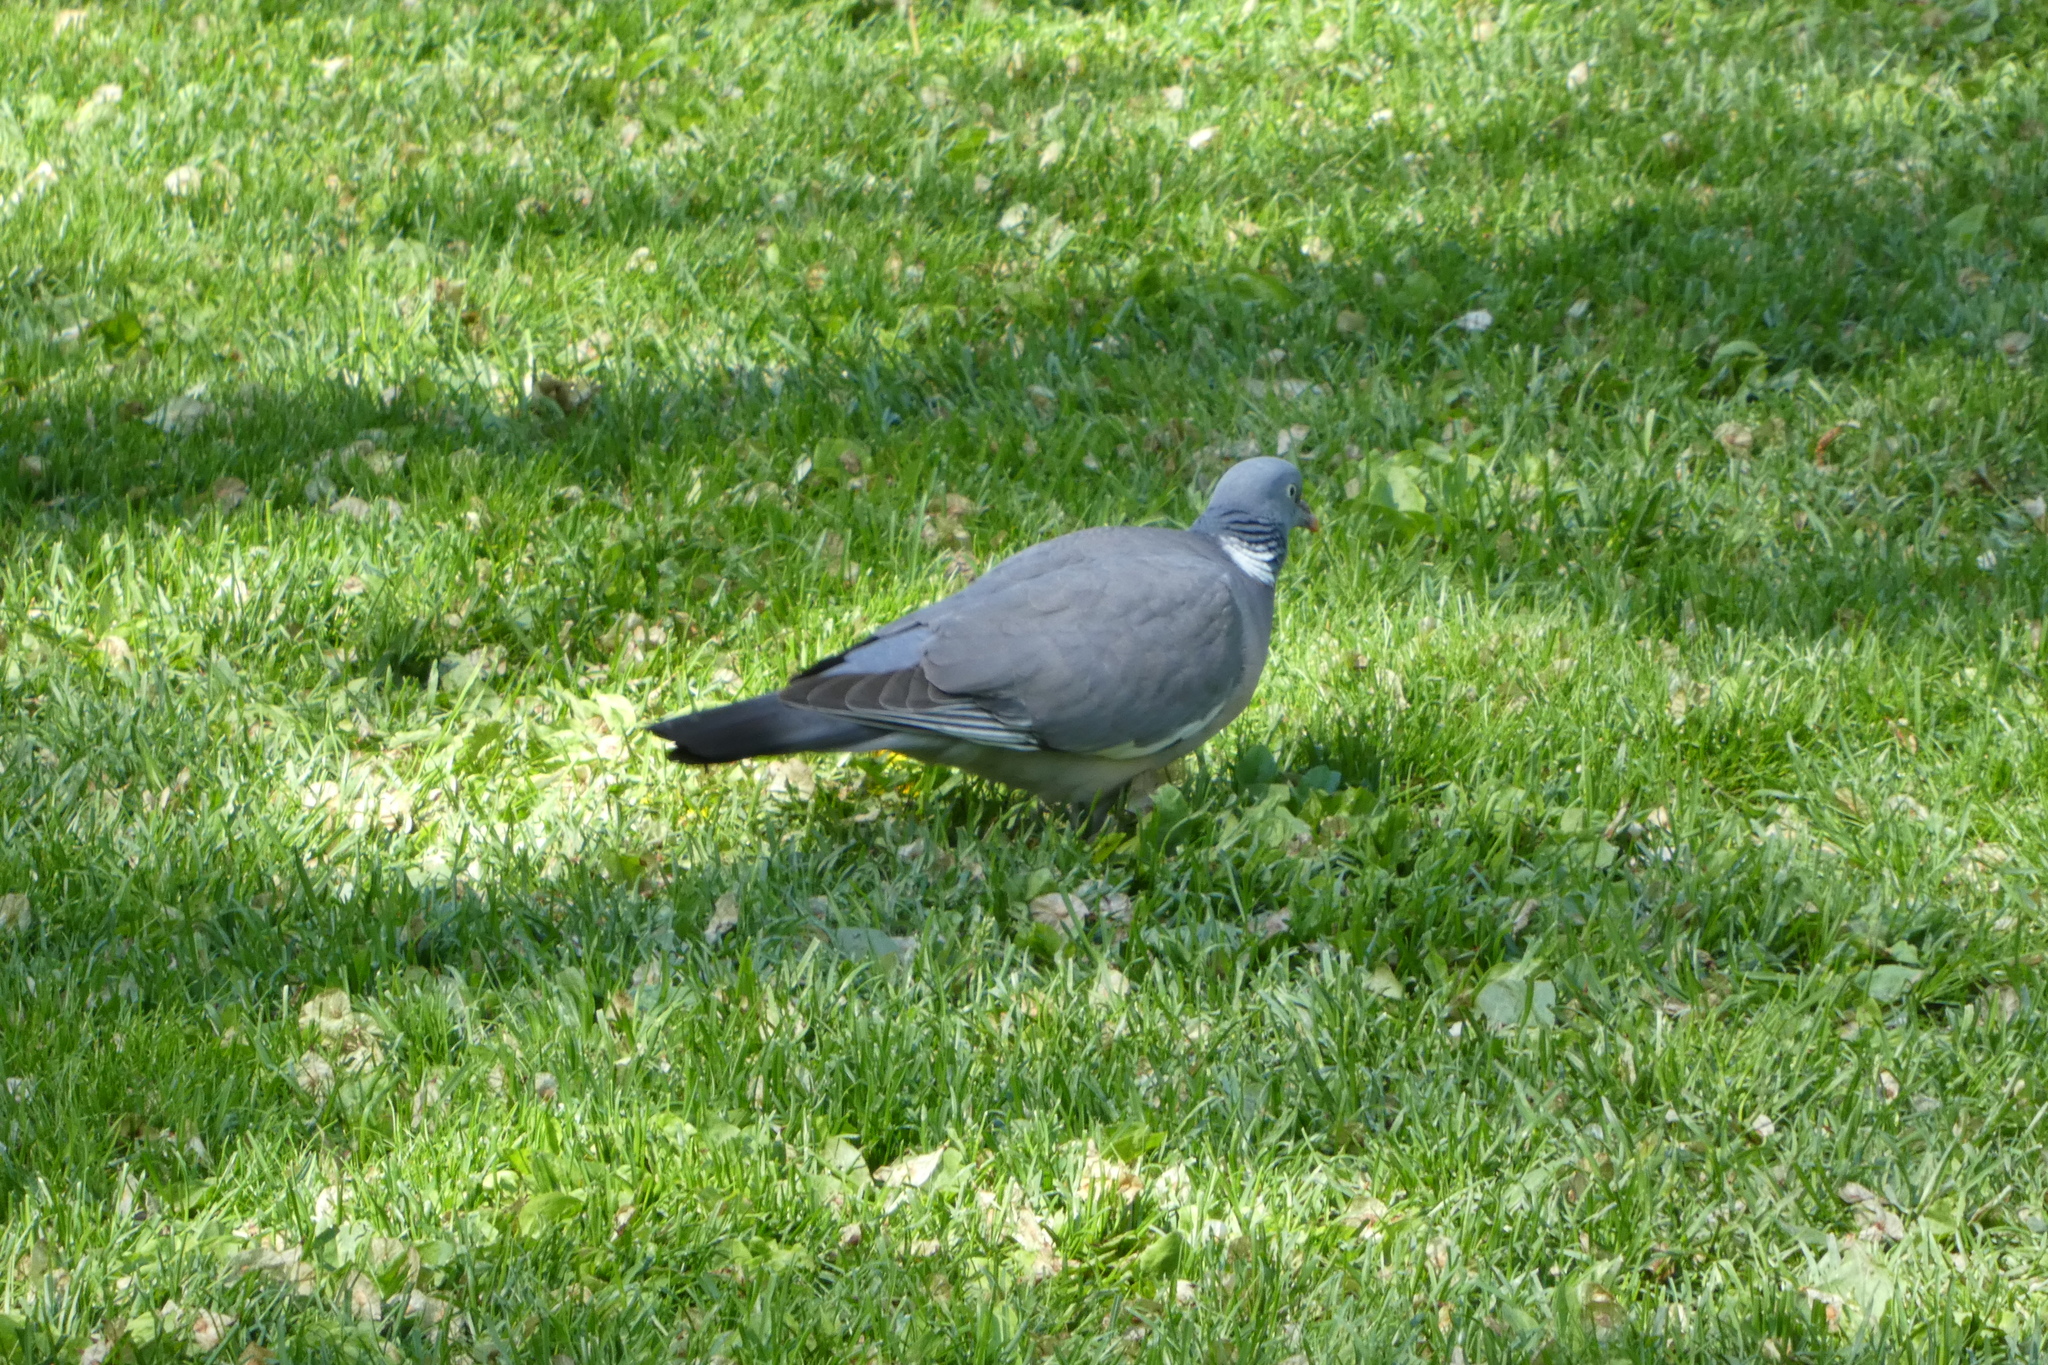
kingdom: Animalia
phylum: Chordata
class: Aves
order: Columbiformes
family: Columbidae
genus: Columba
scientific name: Columba palumbus
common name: Common wood pigeon
